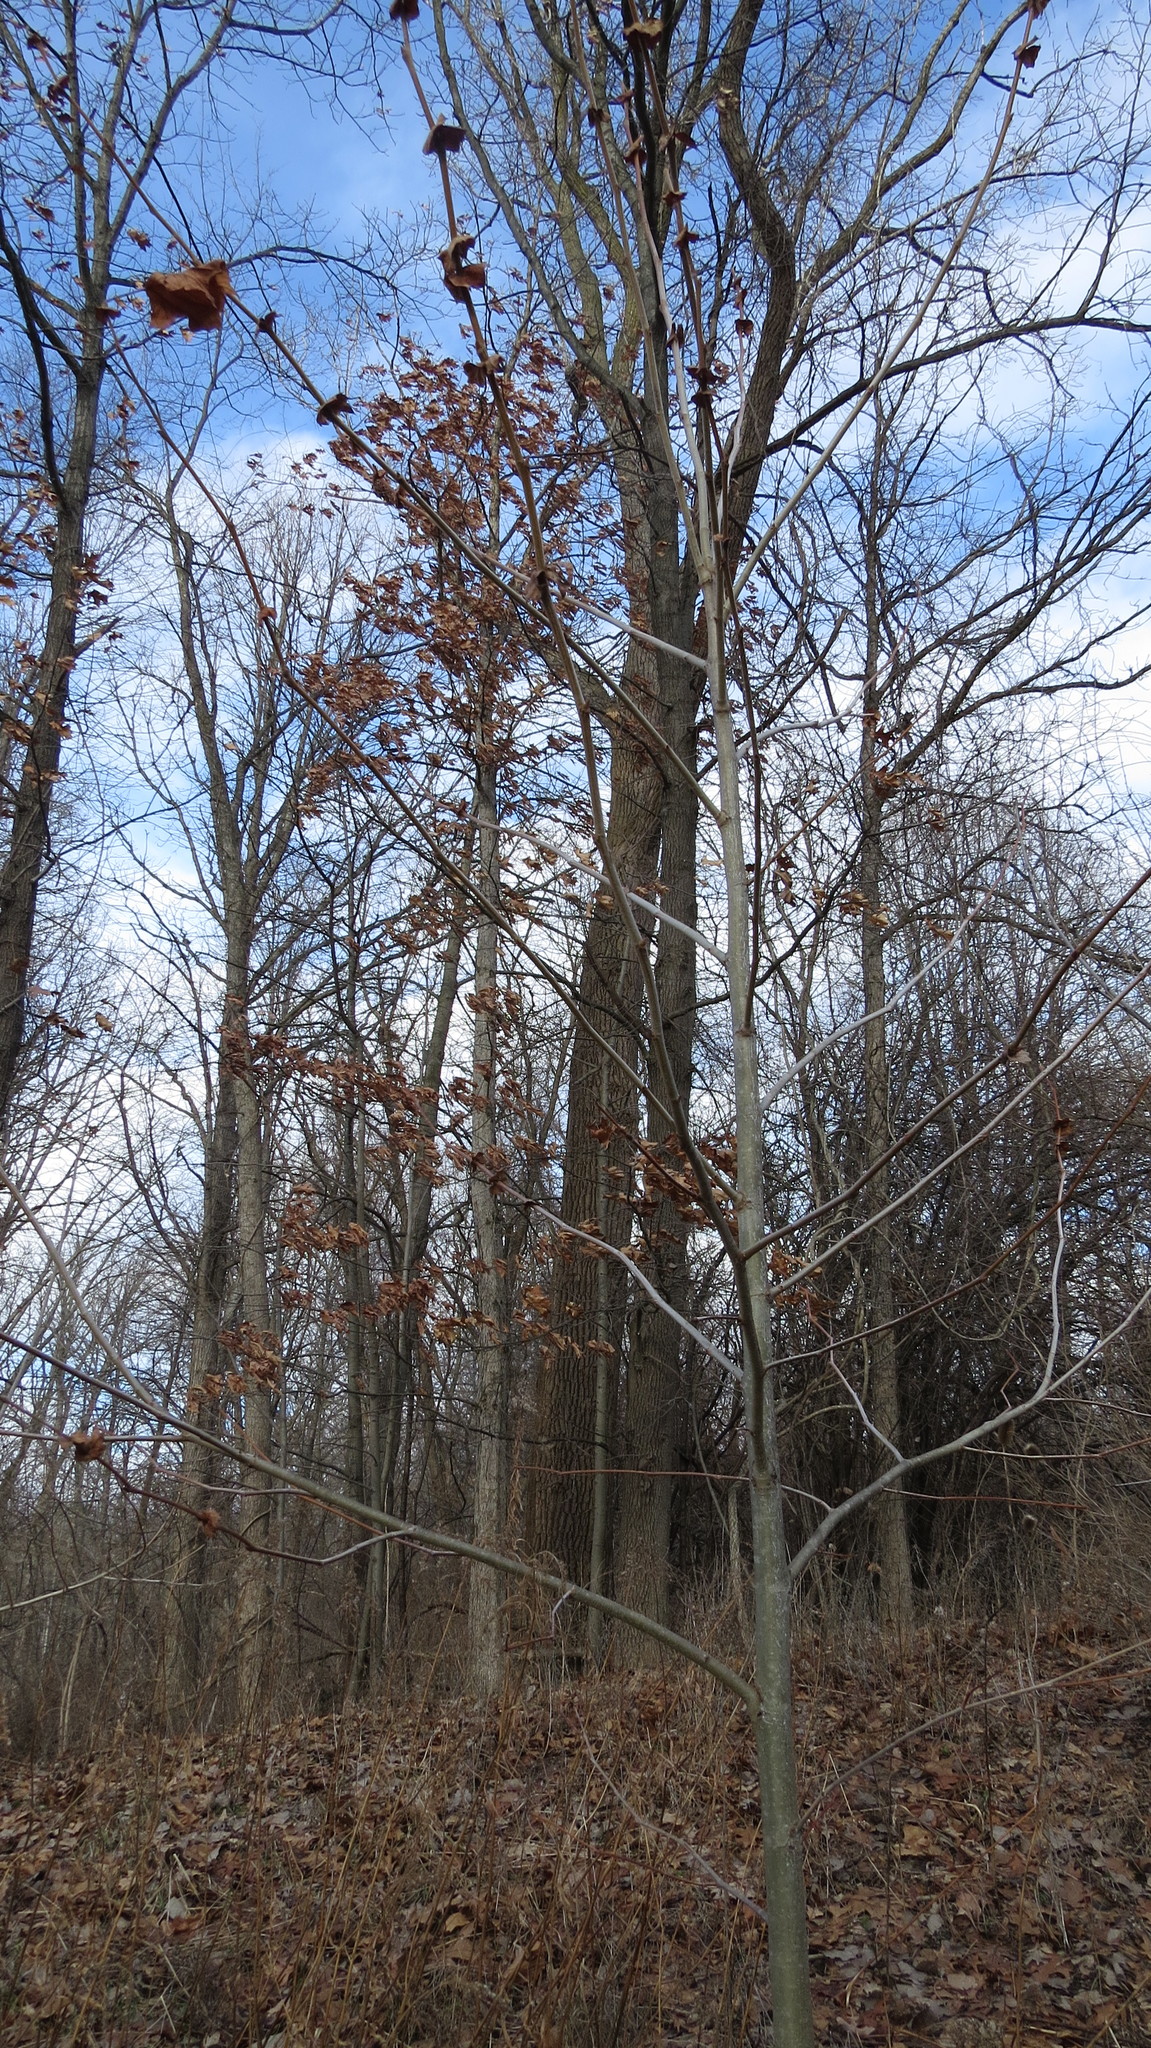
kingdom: Plantae
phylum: Tracheophyta
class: Magnoliopsida
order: Proteales
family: Platanaceae
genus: Platanus
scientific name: Platanus occidentalis
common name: American sycamore
